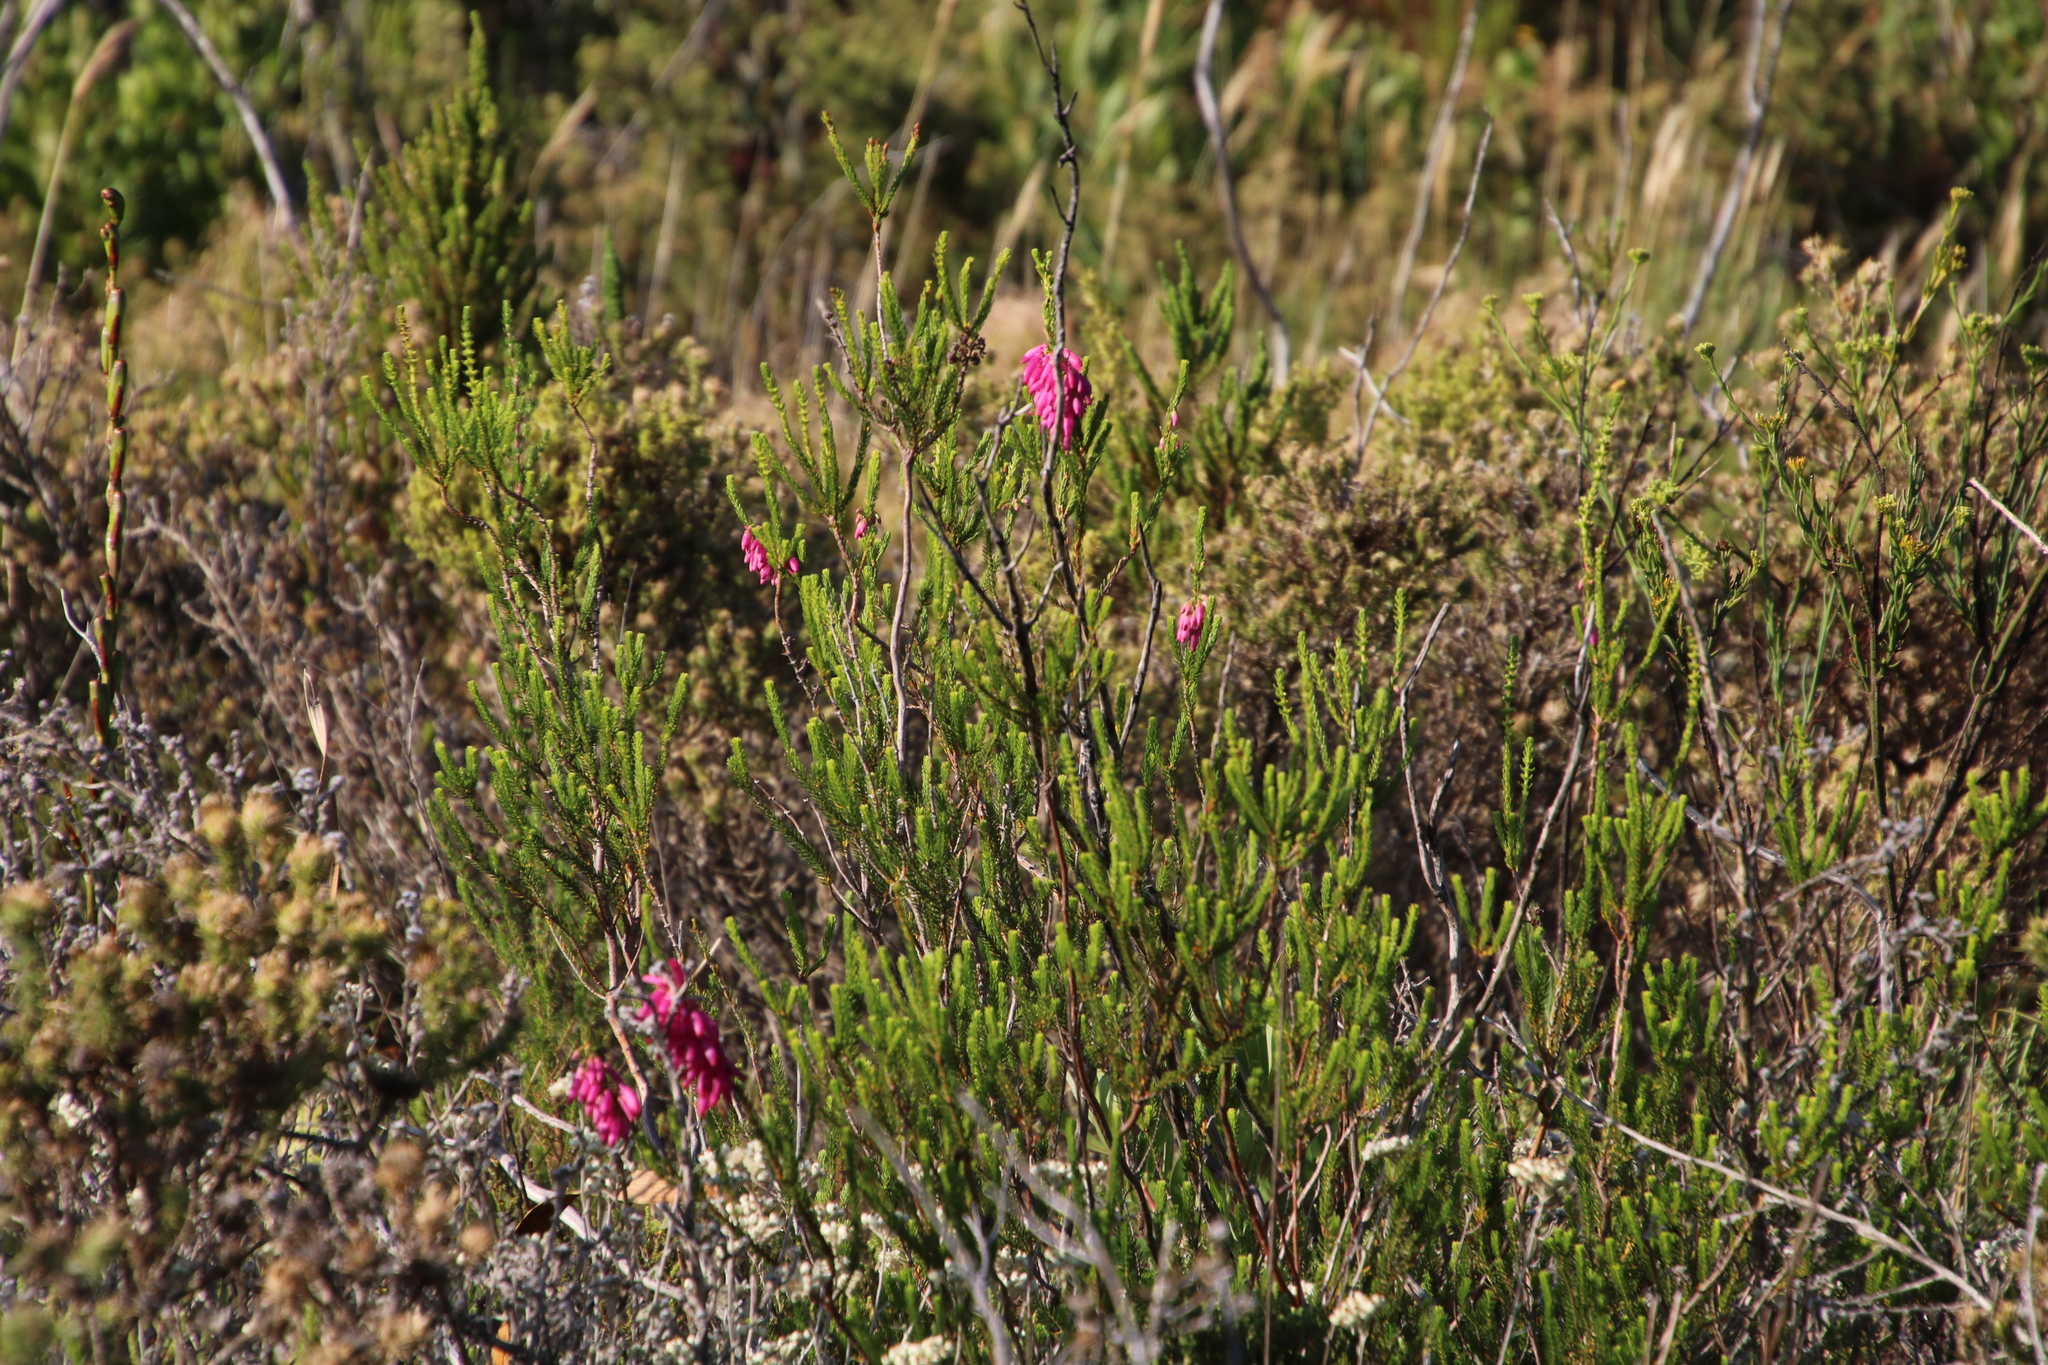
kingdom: Plantae
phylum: Tracheophyta
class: Magnoliopsida
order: Ericales
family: Ericaceae
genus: Erica
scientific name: Erica mammosa
